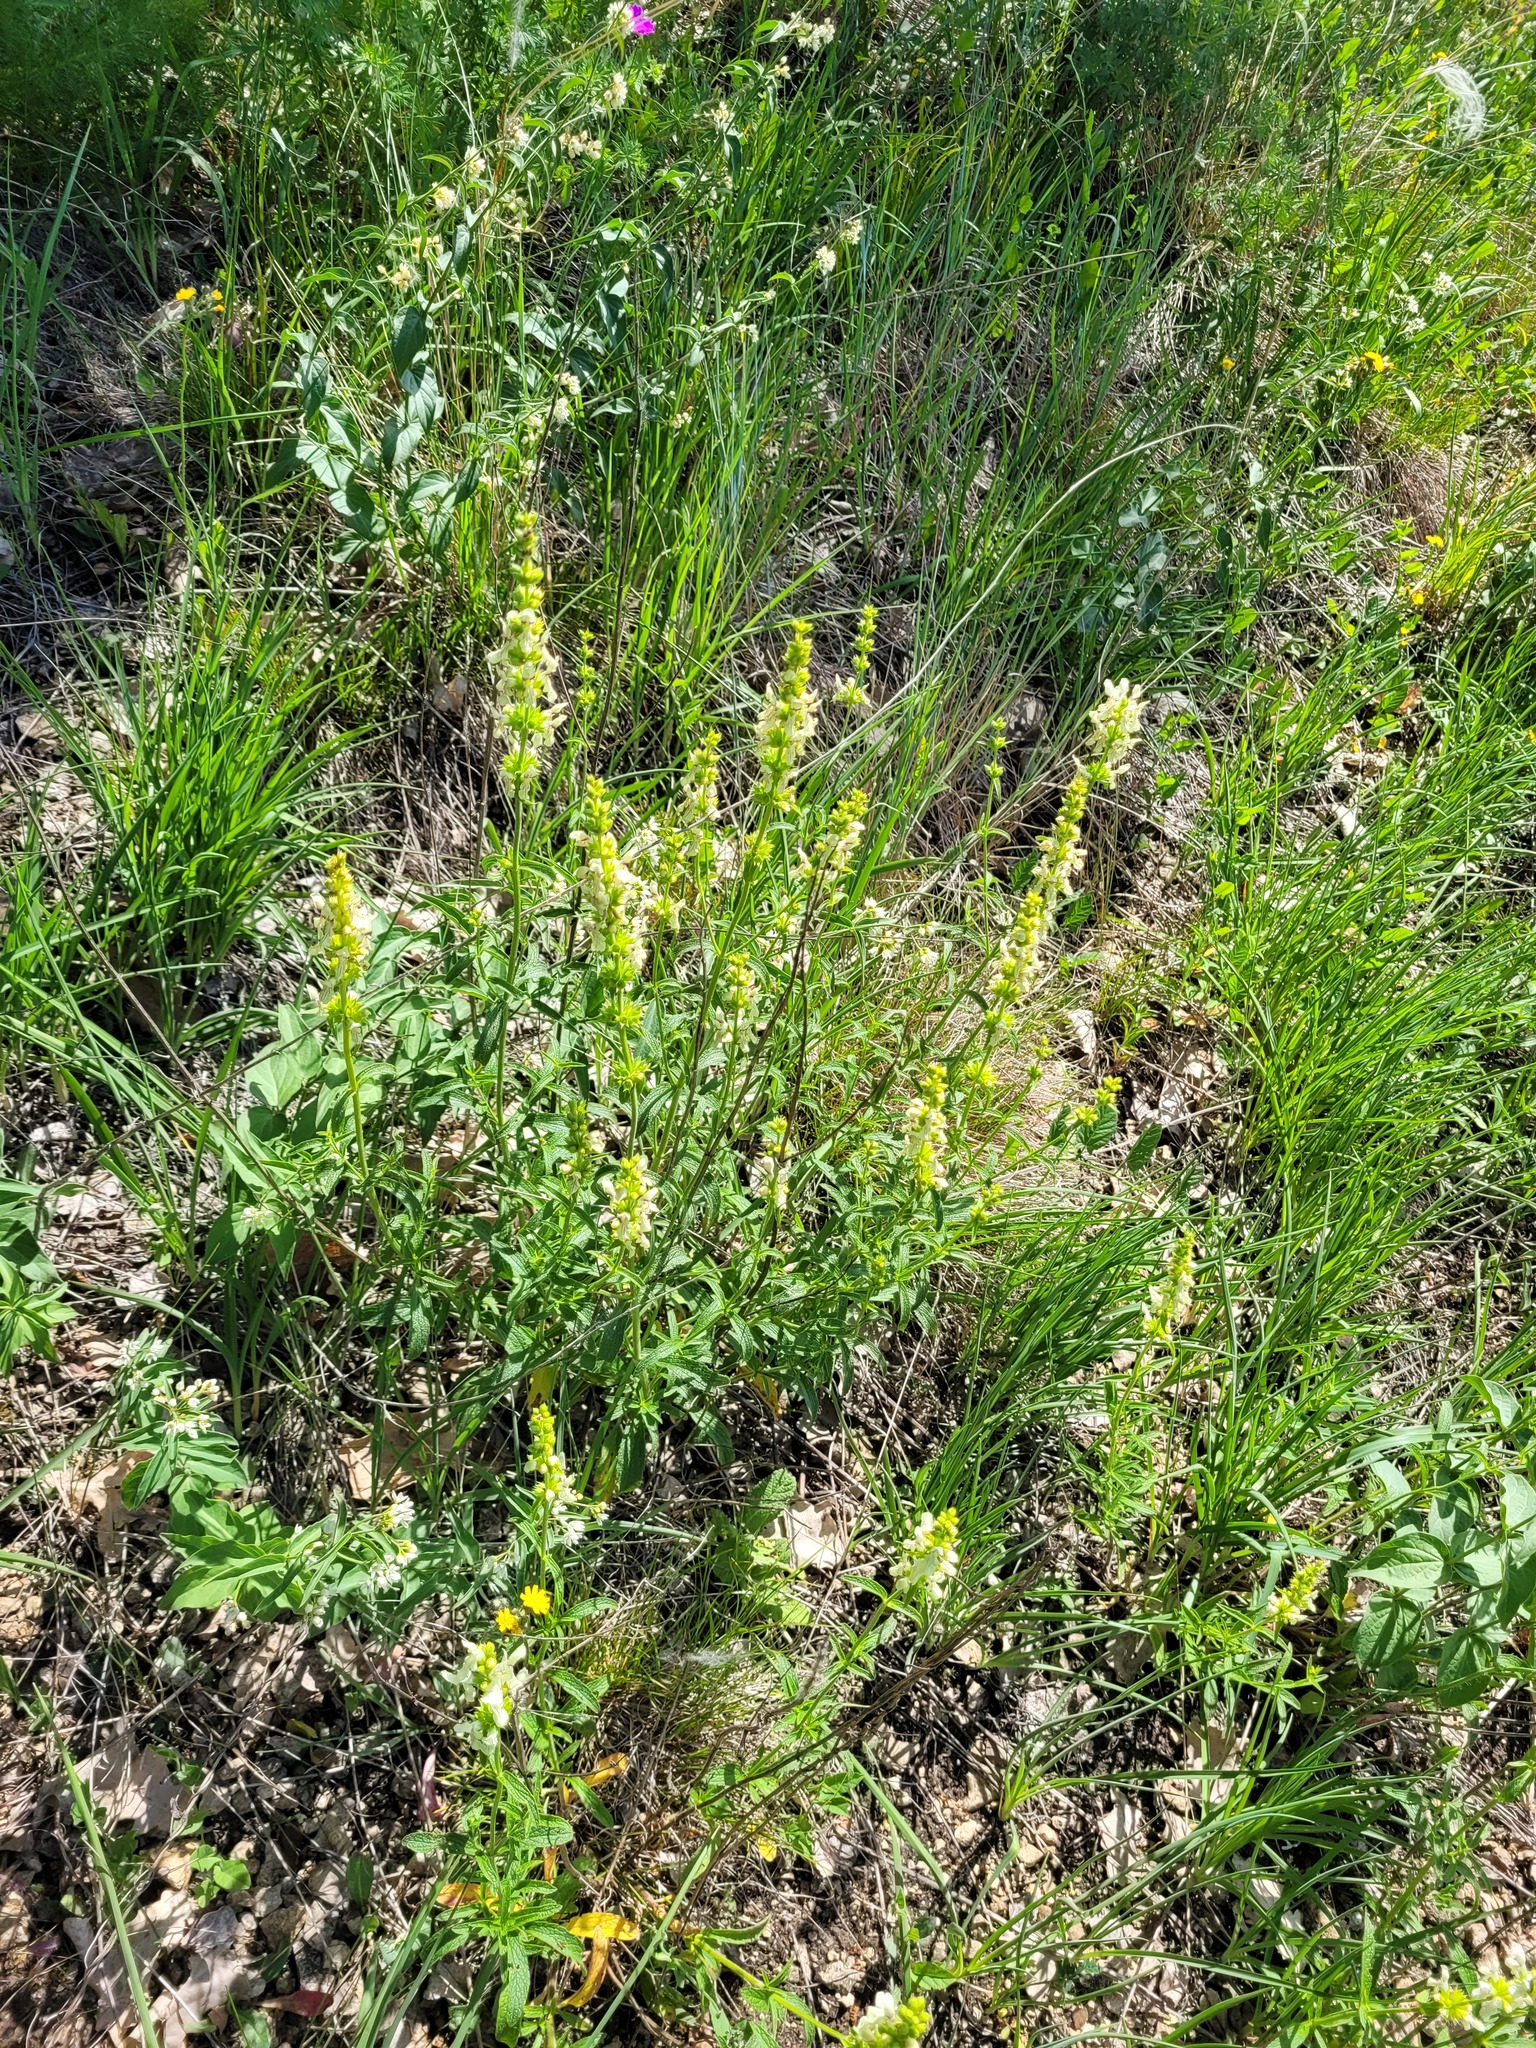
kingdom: Plantae
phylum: Tracheophyta
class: Magnoliopsida
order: Lamiales
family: Lamiaceae
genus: Stachys
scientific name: Stachys recta
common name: Perennial yellow-woundwort
